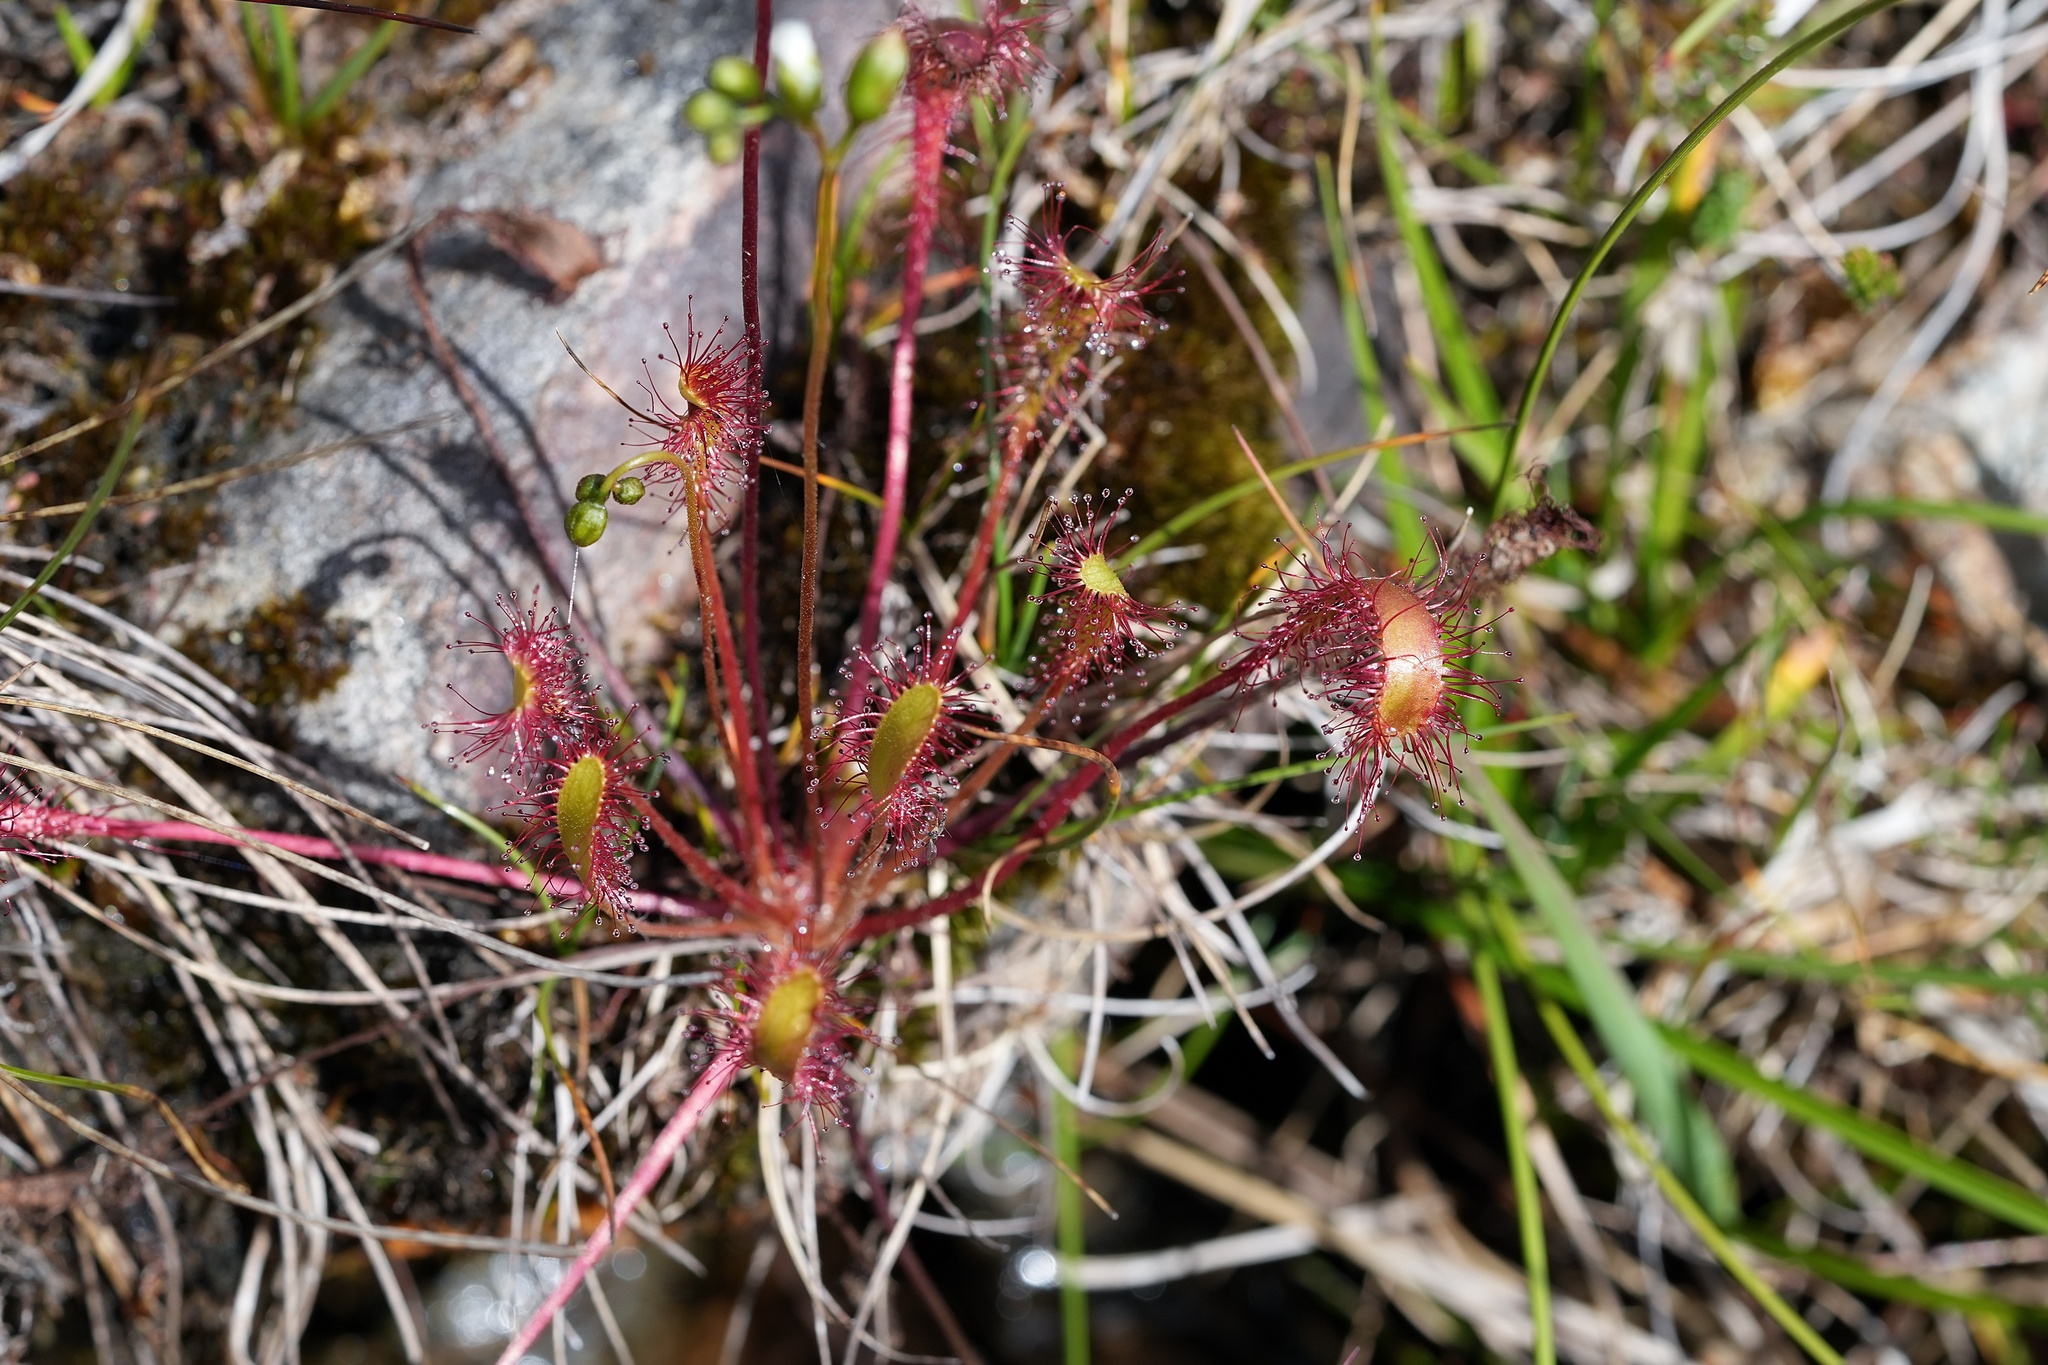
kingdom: Plantae
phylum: Tracheophyta
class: Magnoliopsida
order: Caryophyllales
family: Droseraceae
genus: Drosera
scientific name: Drosera anglica
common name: Great sundew
